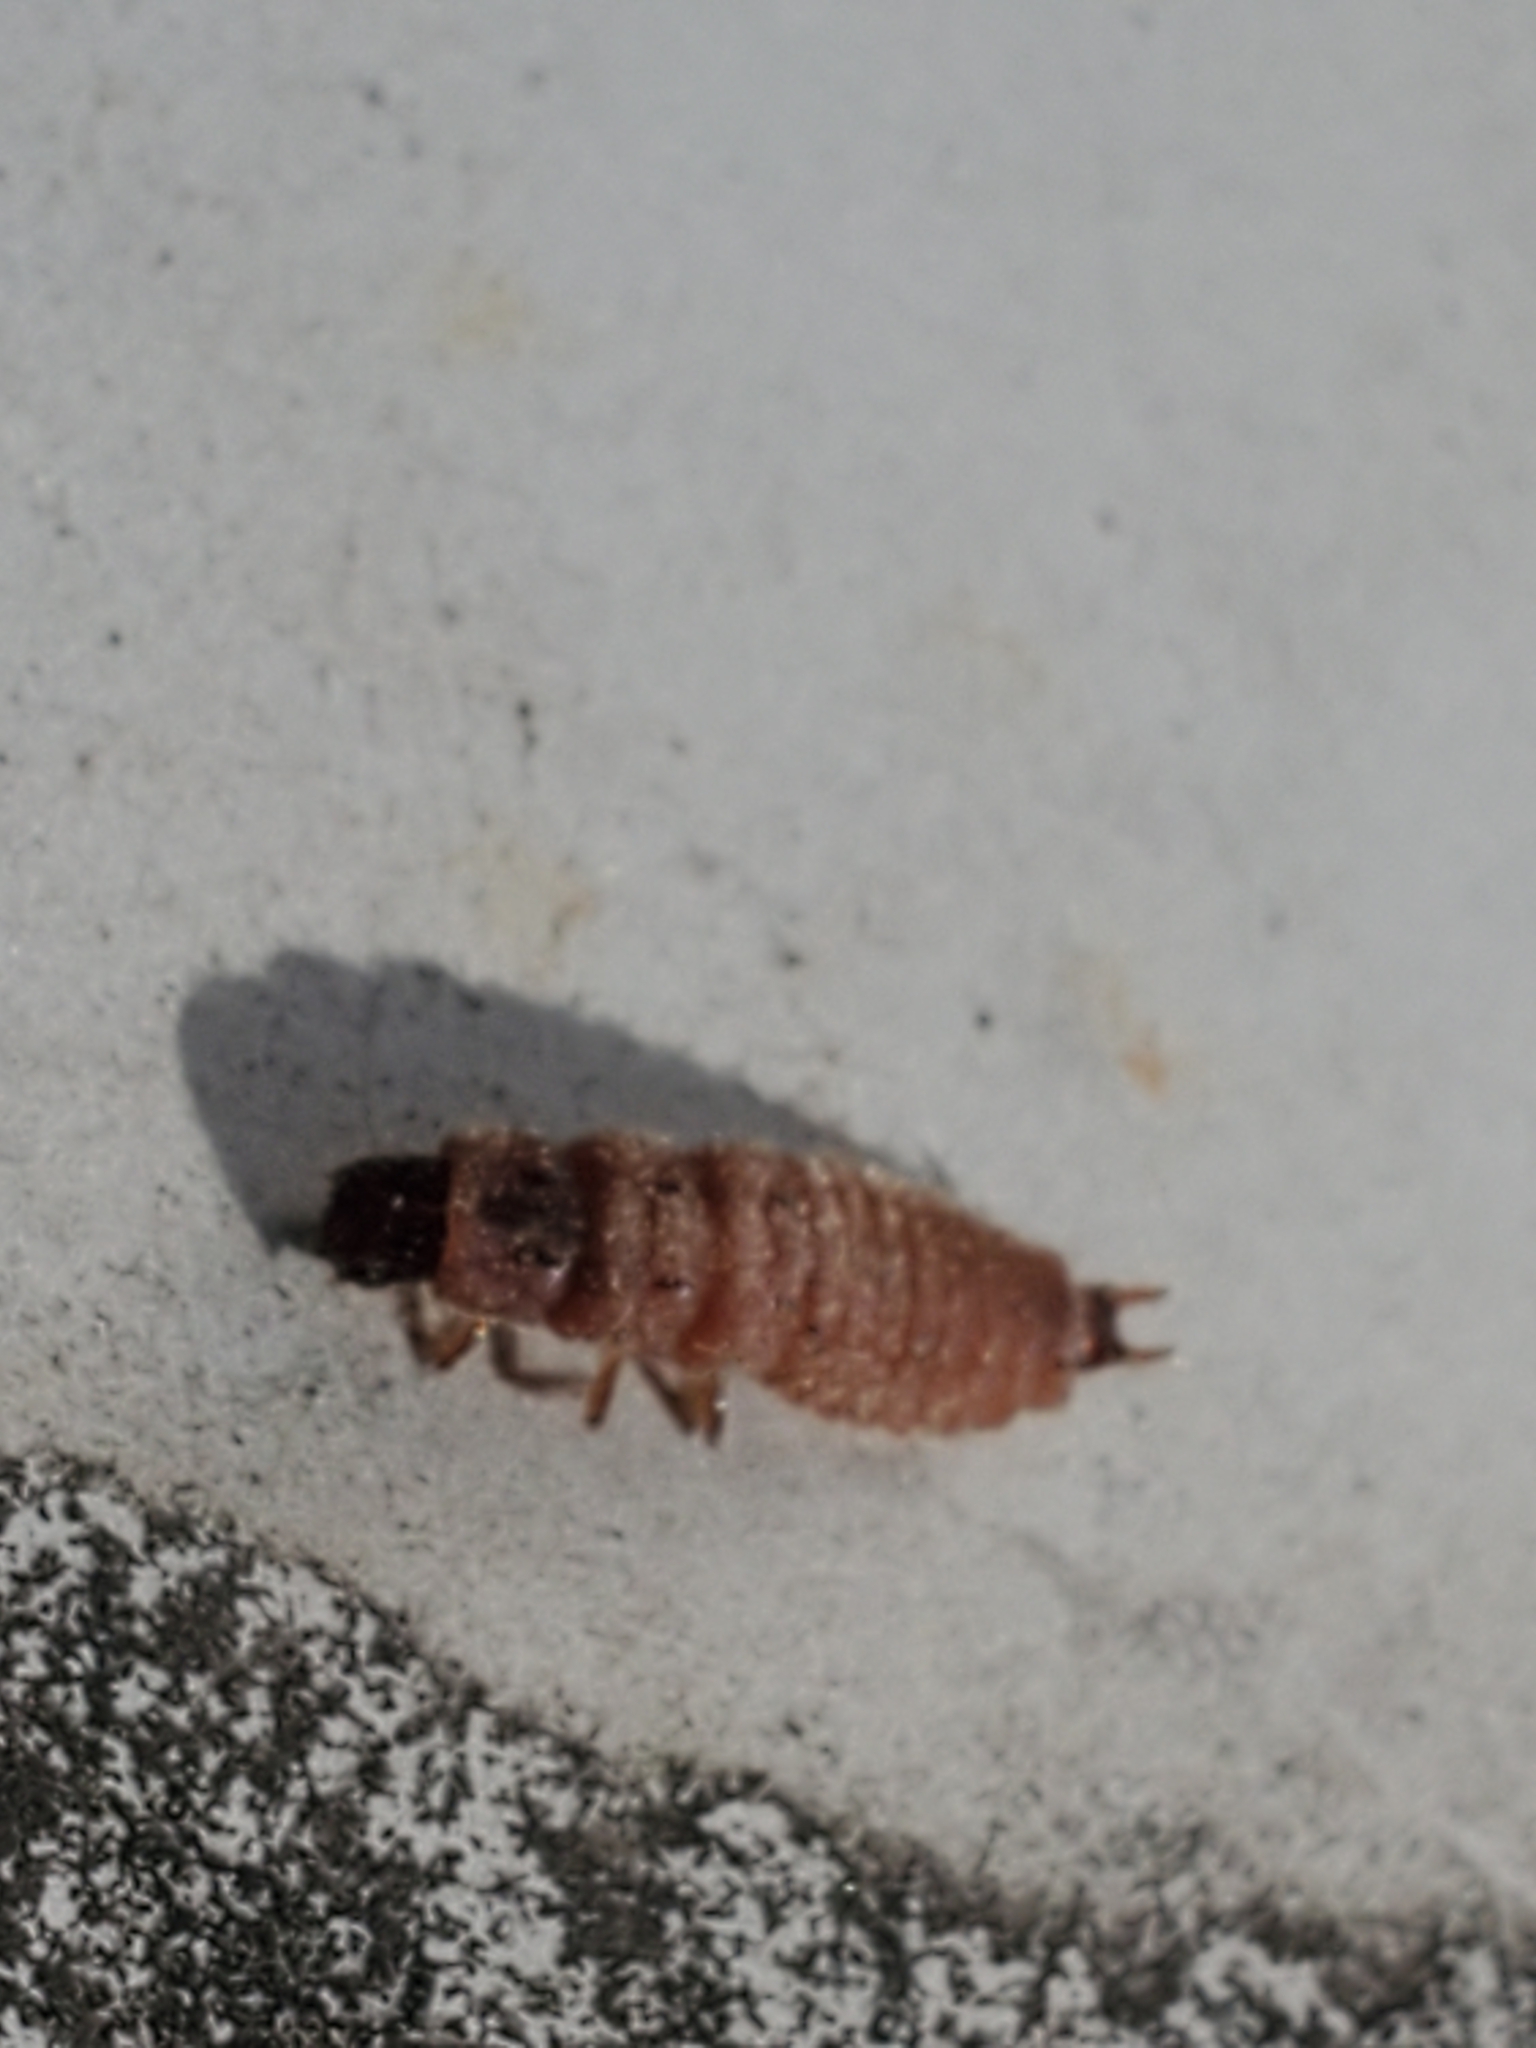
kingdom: Animalia
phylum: Arthropoda
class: Insecta
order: Coleoptera
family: Melyridae
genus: Malachius
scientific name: Malachius aeneus
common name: Scarlet malachite beetle
